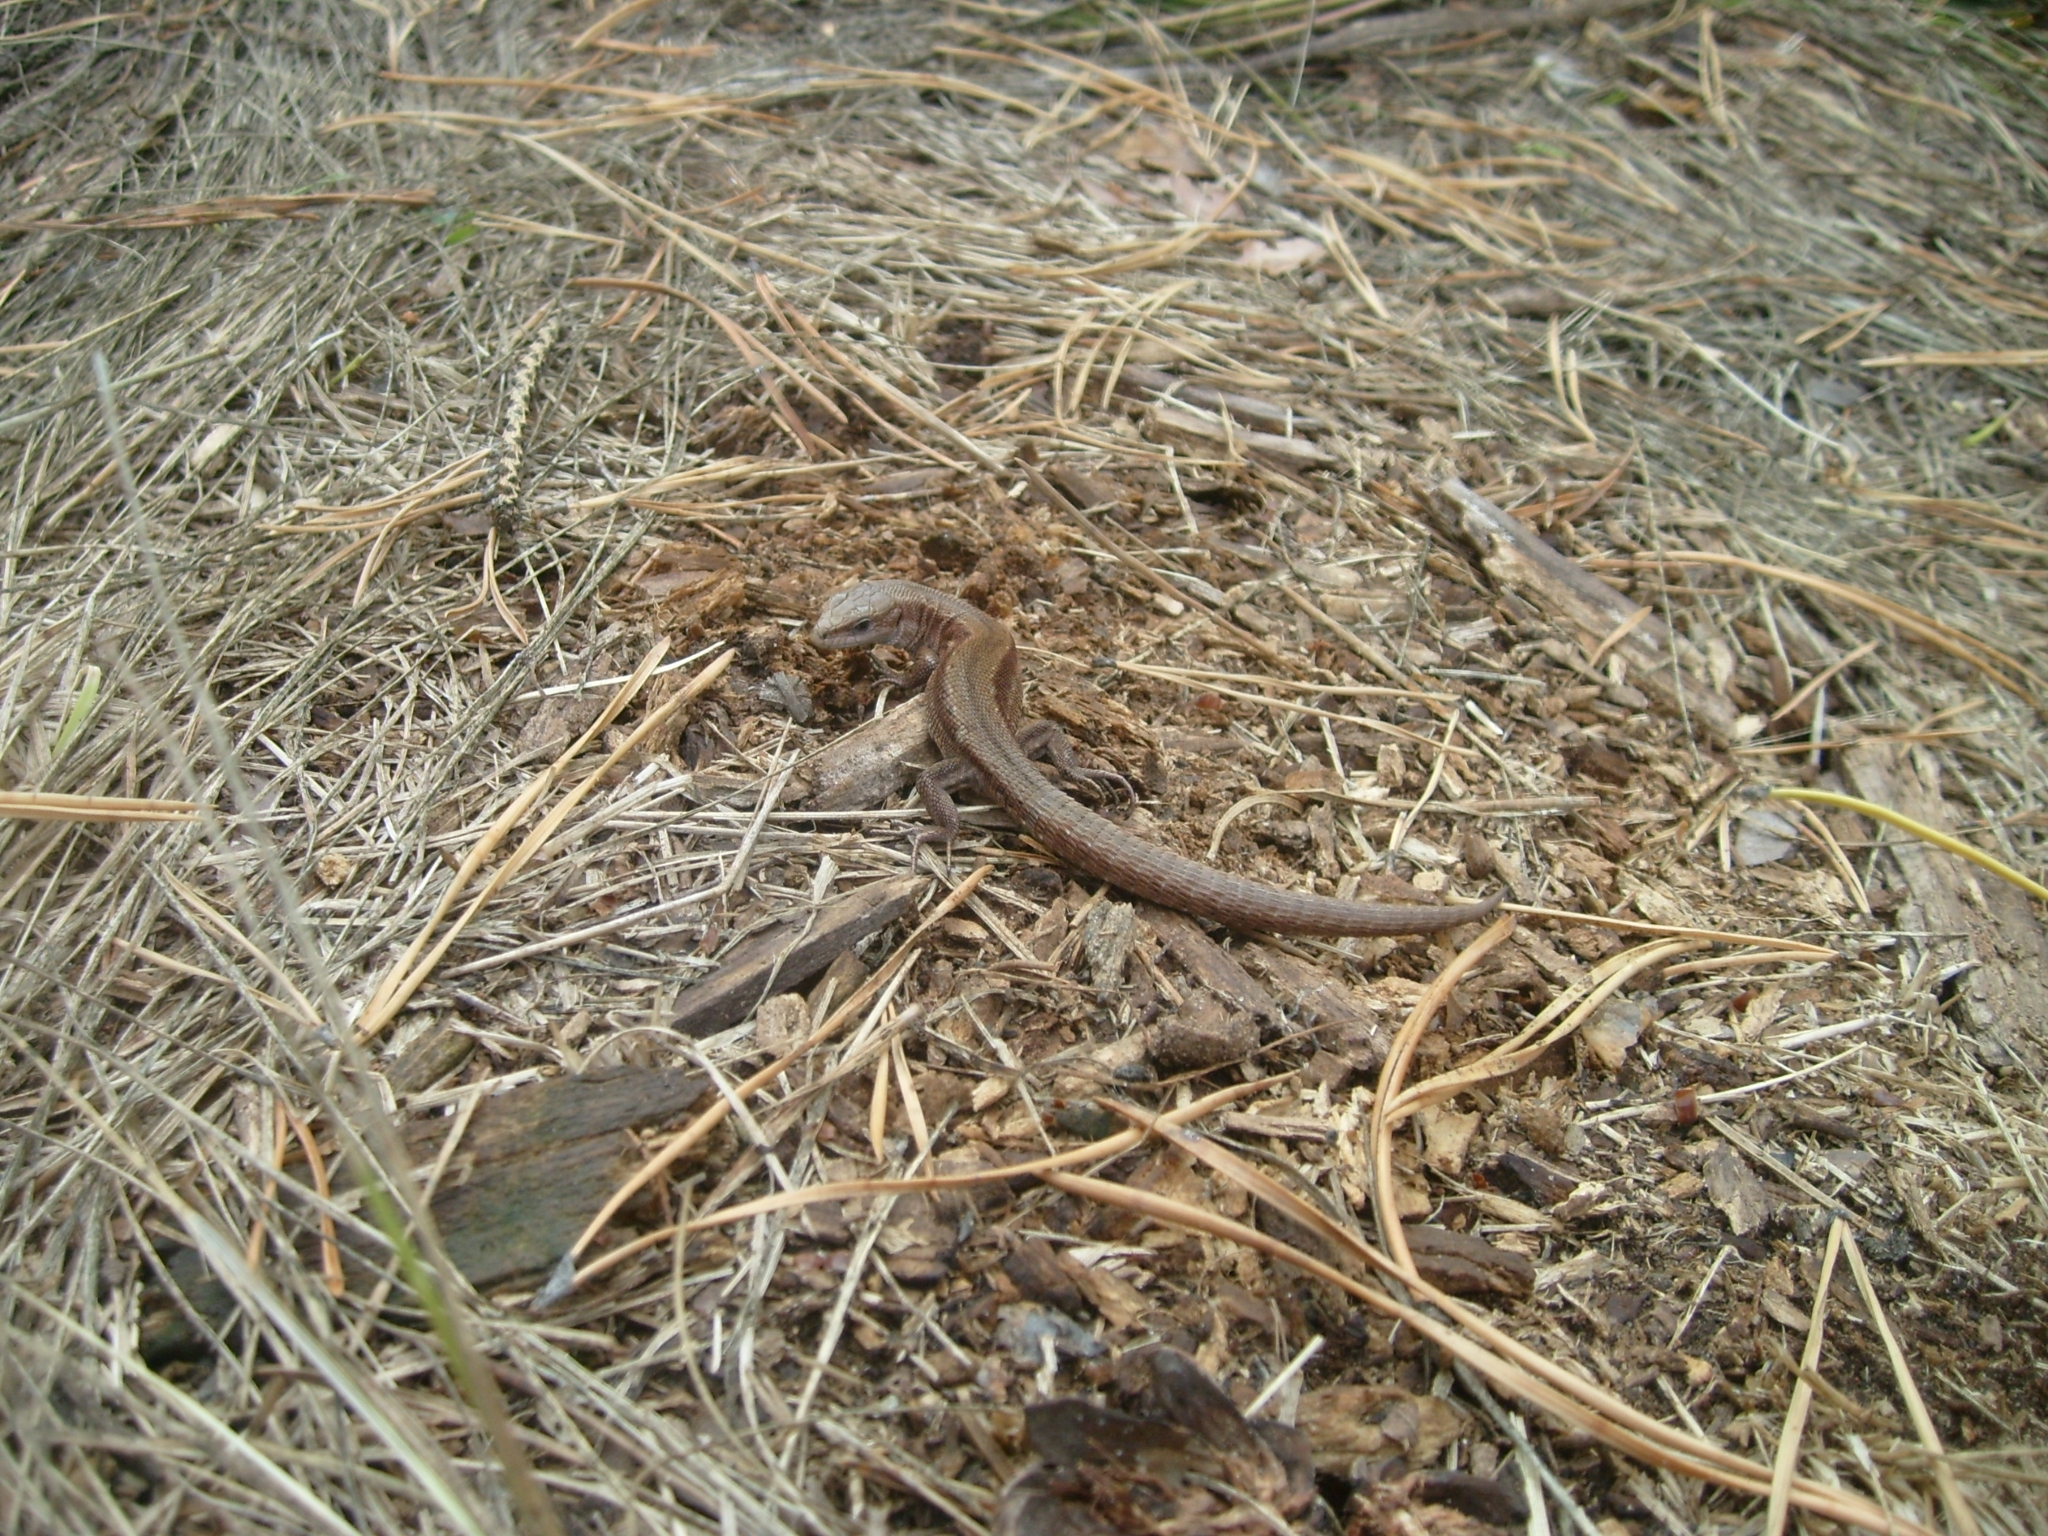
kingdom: Animalia
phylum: Chordata
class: Squamata
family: Lacertidae
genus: Zootoca
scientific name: Zootoca vivipara
